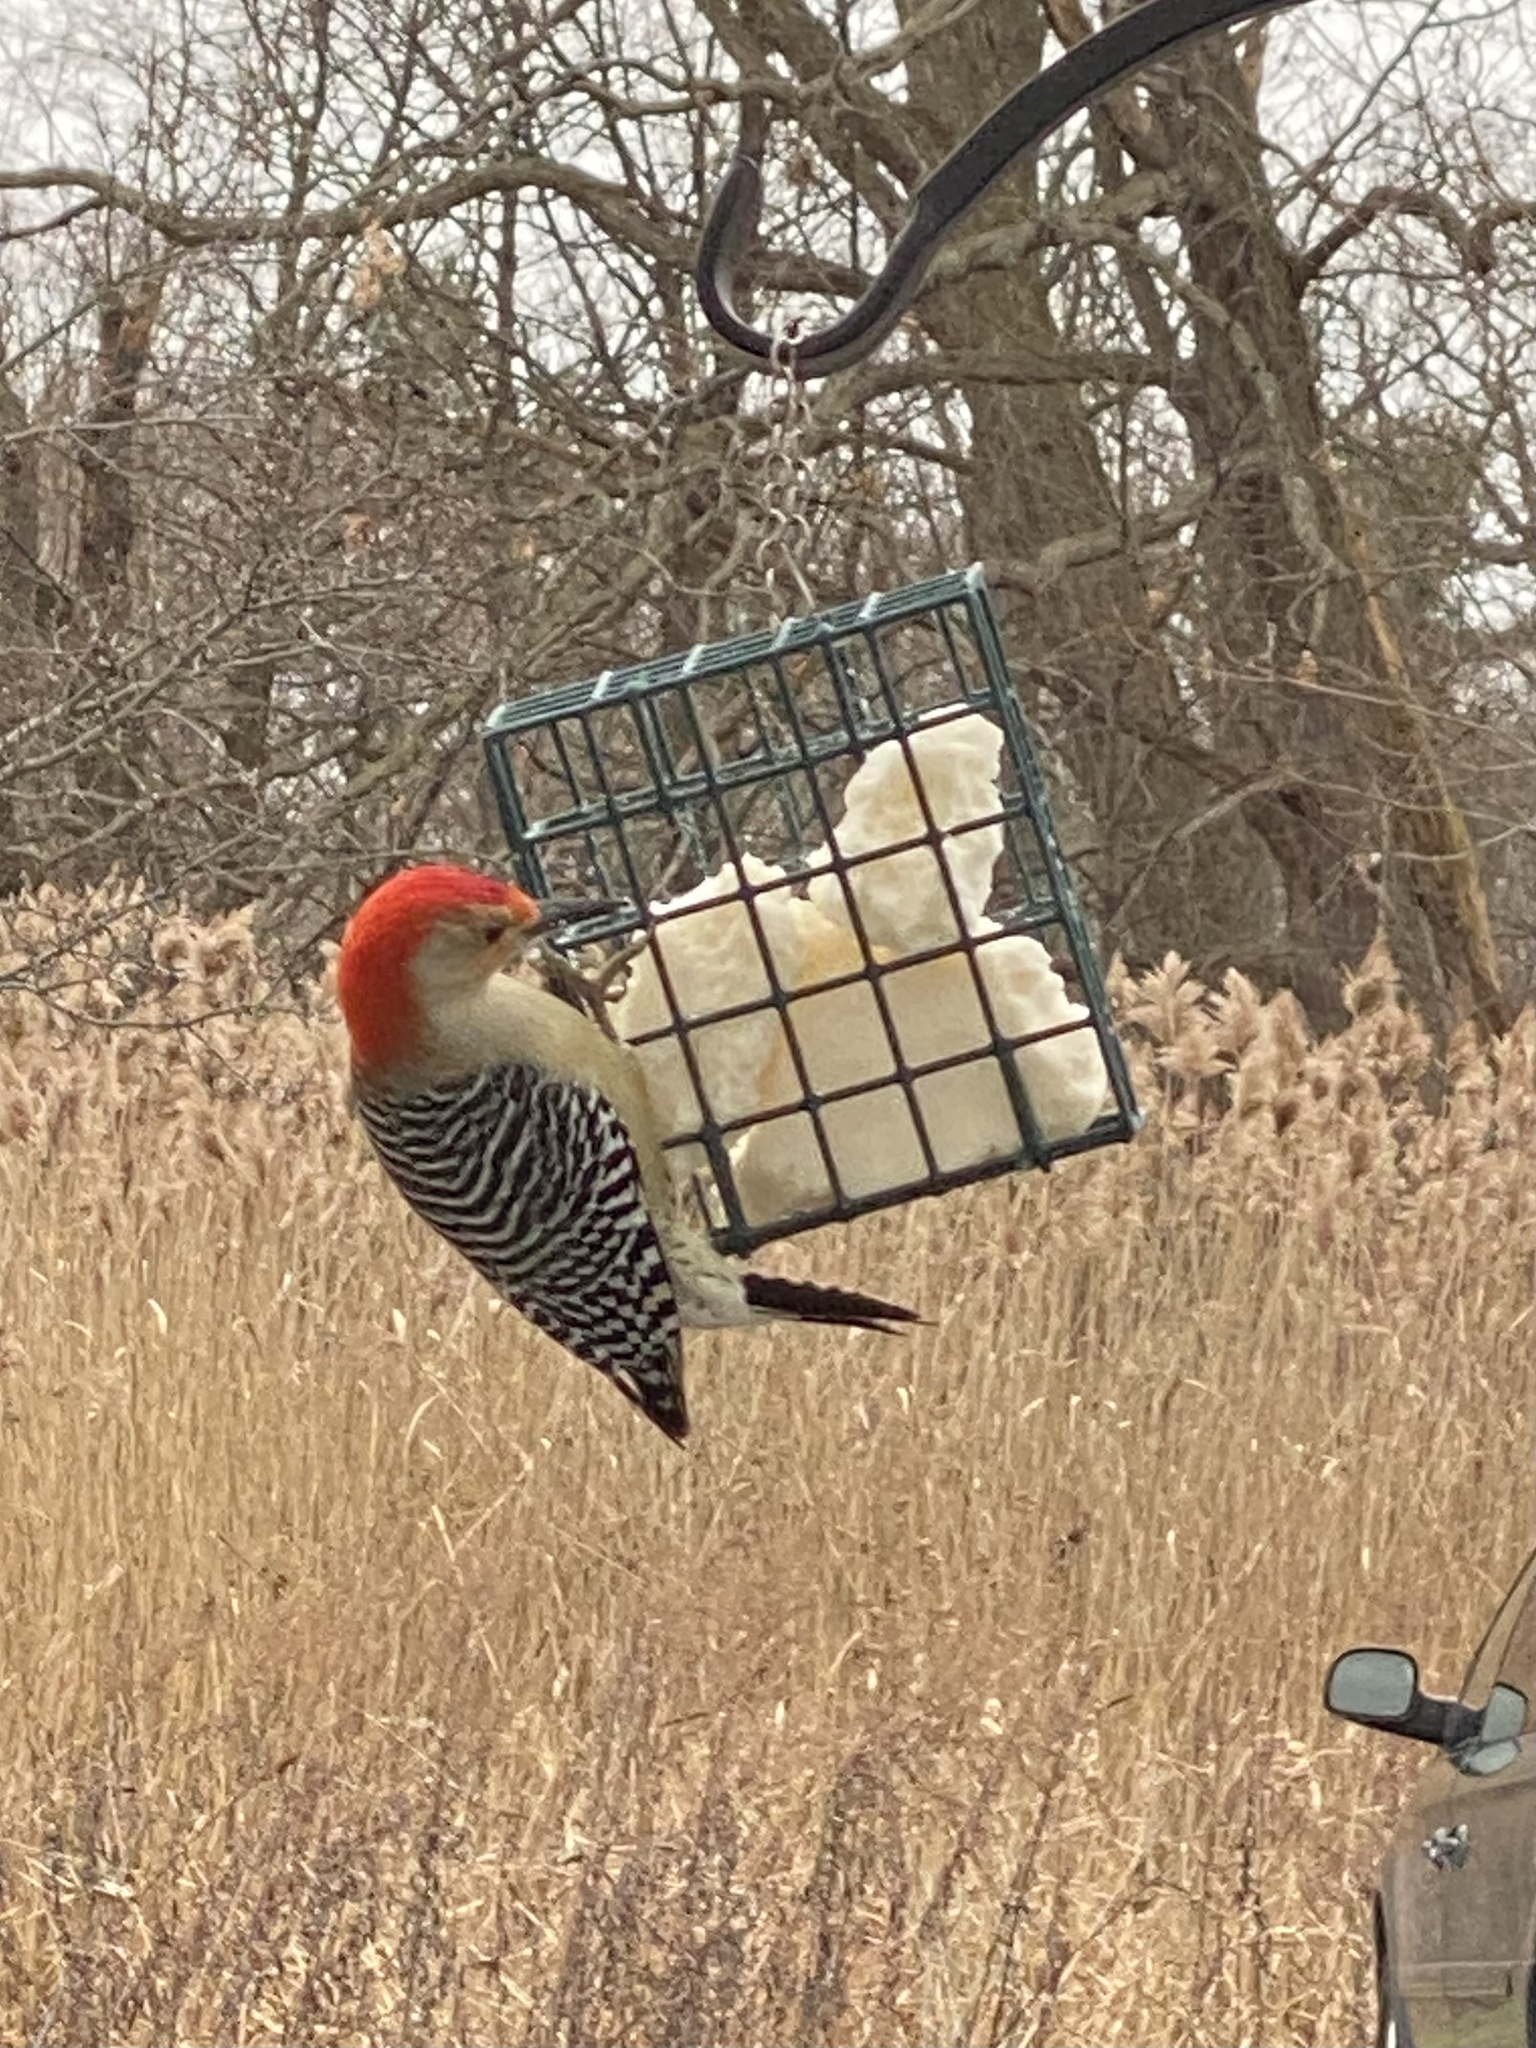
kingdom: Animalia
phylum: Chordata
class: Aves
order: Piciformes
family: Picidae
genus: Melanerpes
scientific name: Melanerpes carolinus
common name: Red-bellied woodpecker
